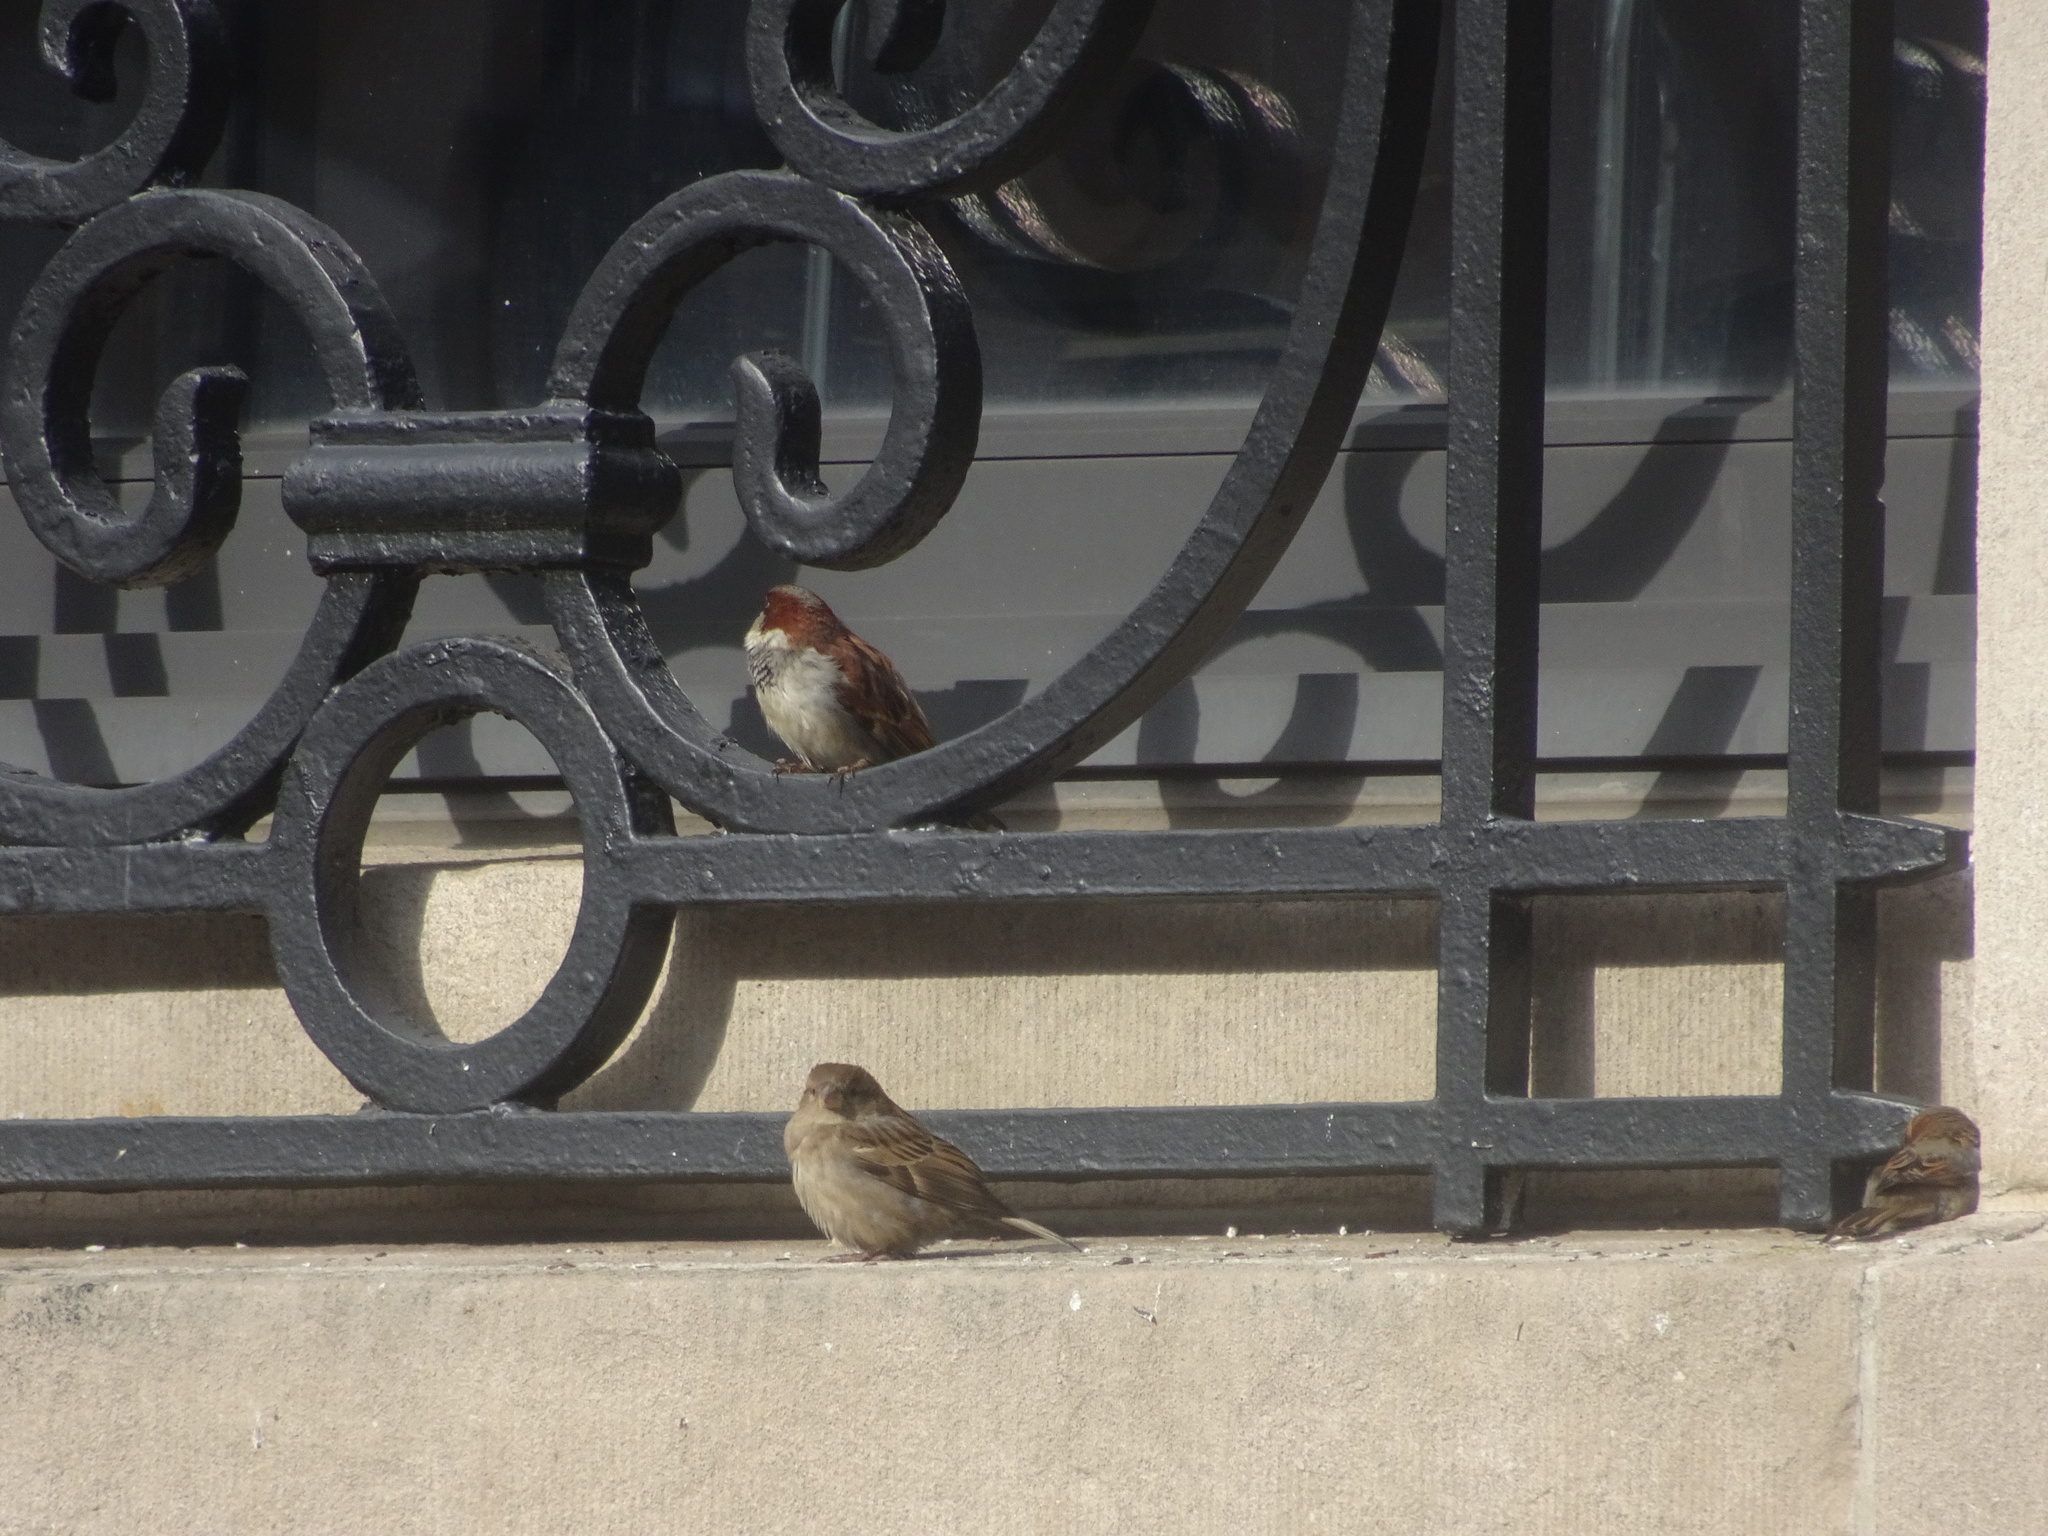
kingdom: Animalia
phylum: Chordata
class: Aves
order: Passeriformes
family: Passeridae
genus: Passer
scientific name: Passer domesticus
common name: House sparrow
